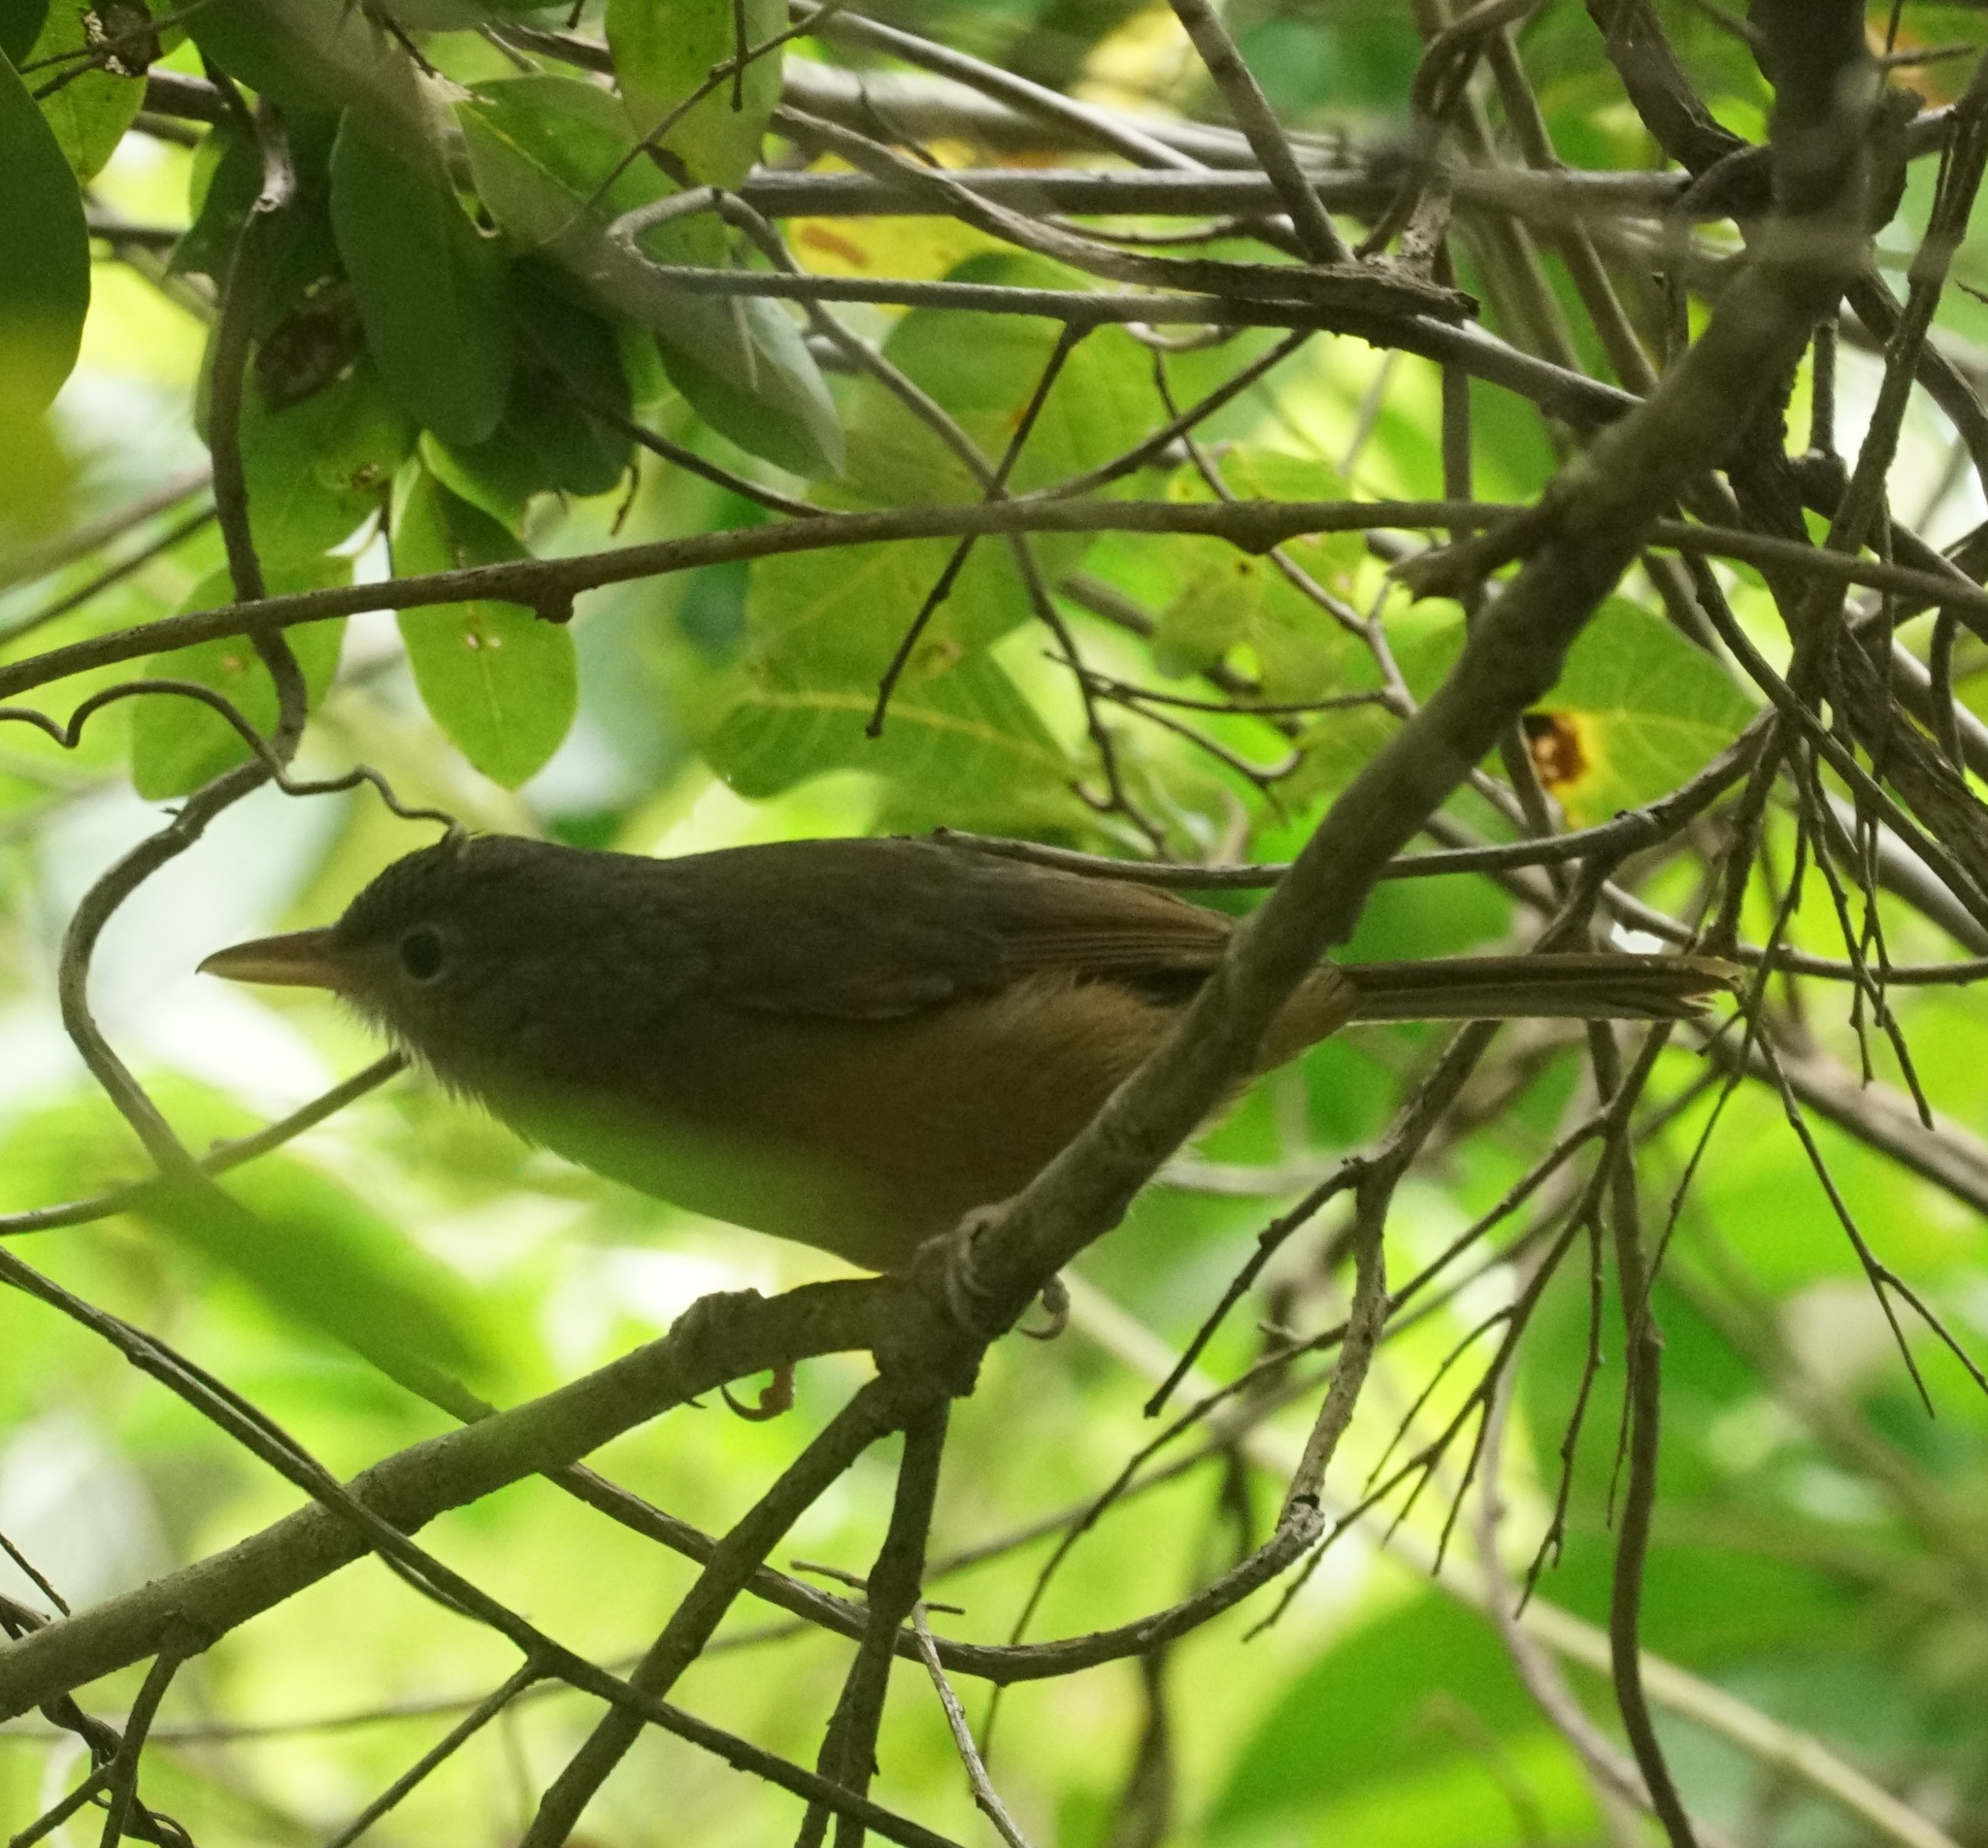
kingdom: Animalia
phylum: Chordata
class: Aves
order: Passeriformes
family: Pachycephalidae
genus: Colluricincla
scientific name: Colluricincla rufogaster
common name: Rufous shrikethrush
